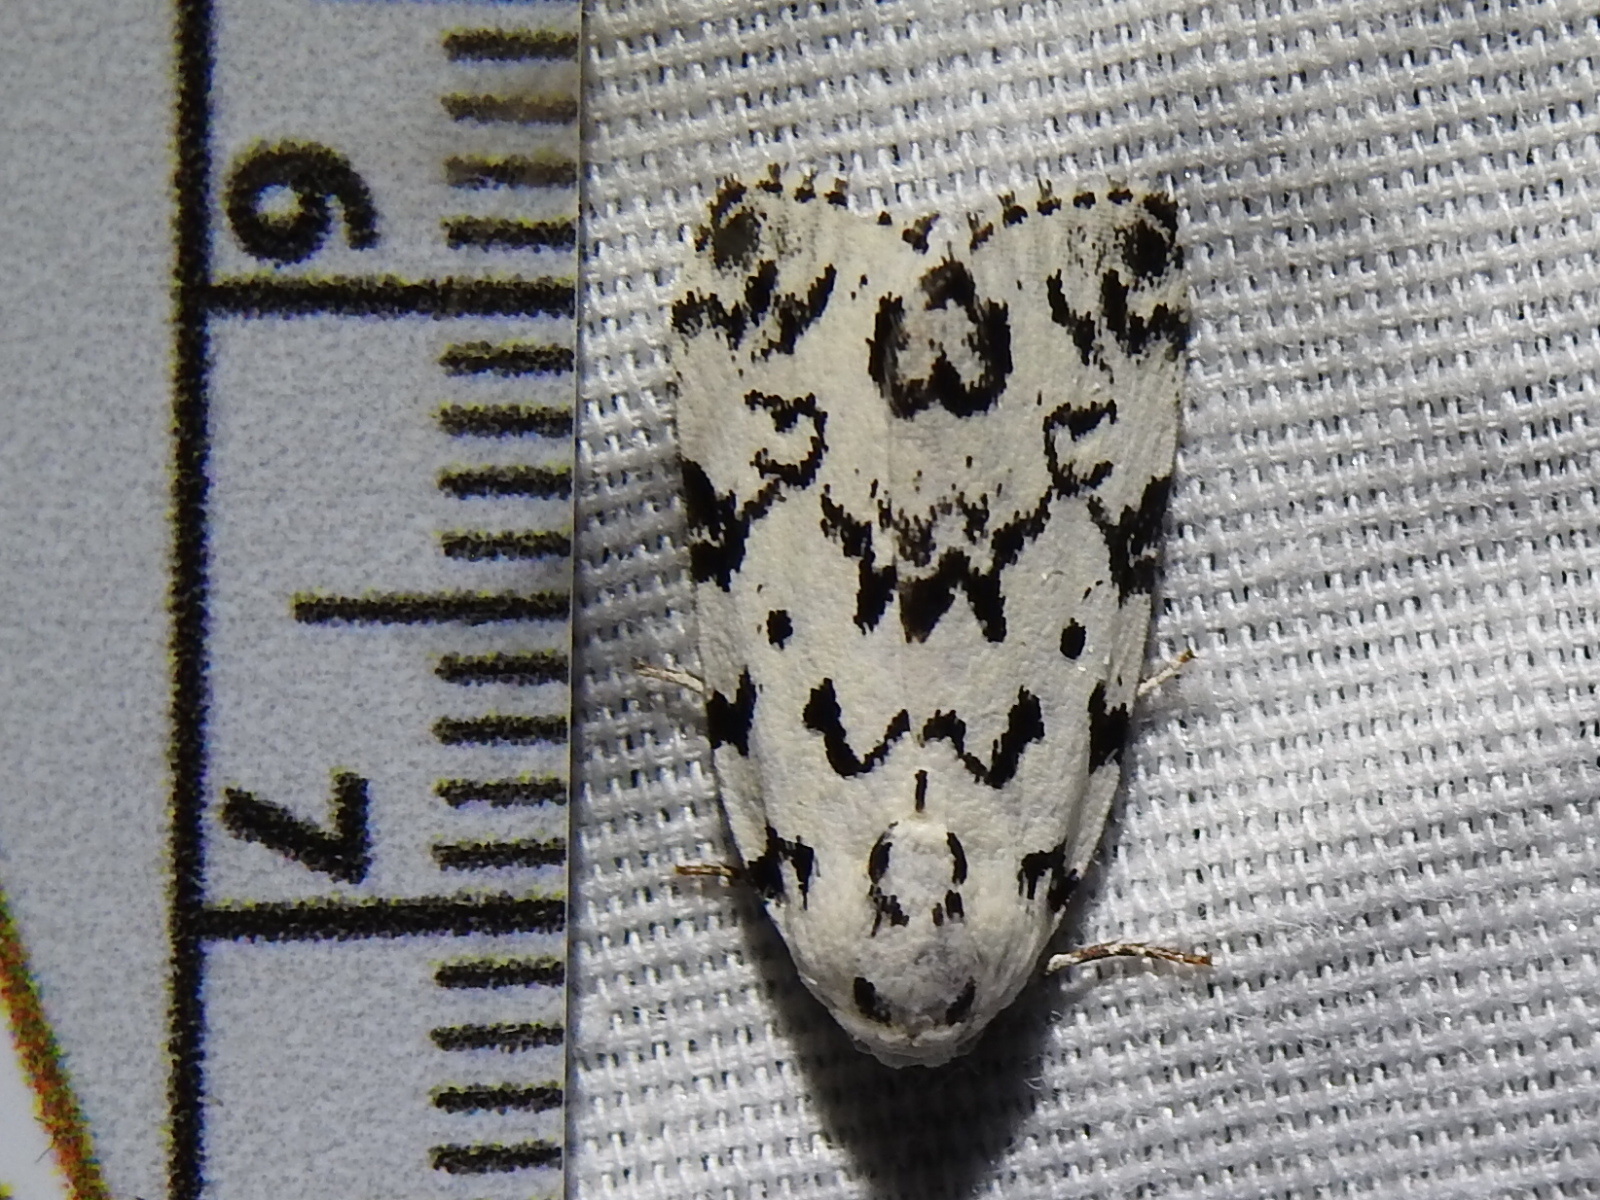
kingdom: Animalia
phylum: Arthropoda
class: Insecta
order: Lepidoptera
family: Noctuidae
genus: Polygrammate
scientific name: Polygrammate hebraeicum
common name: Hebrew moth
